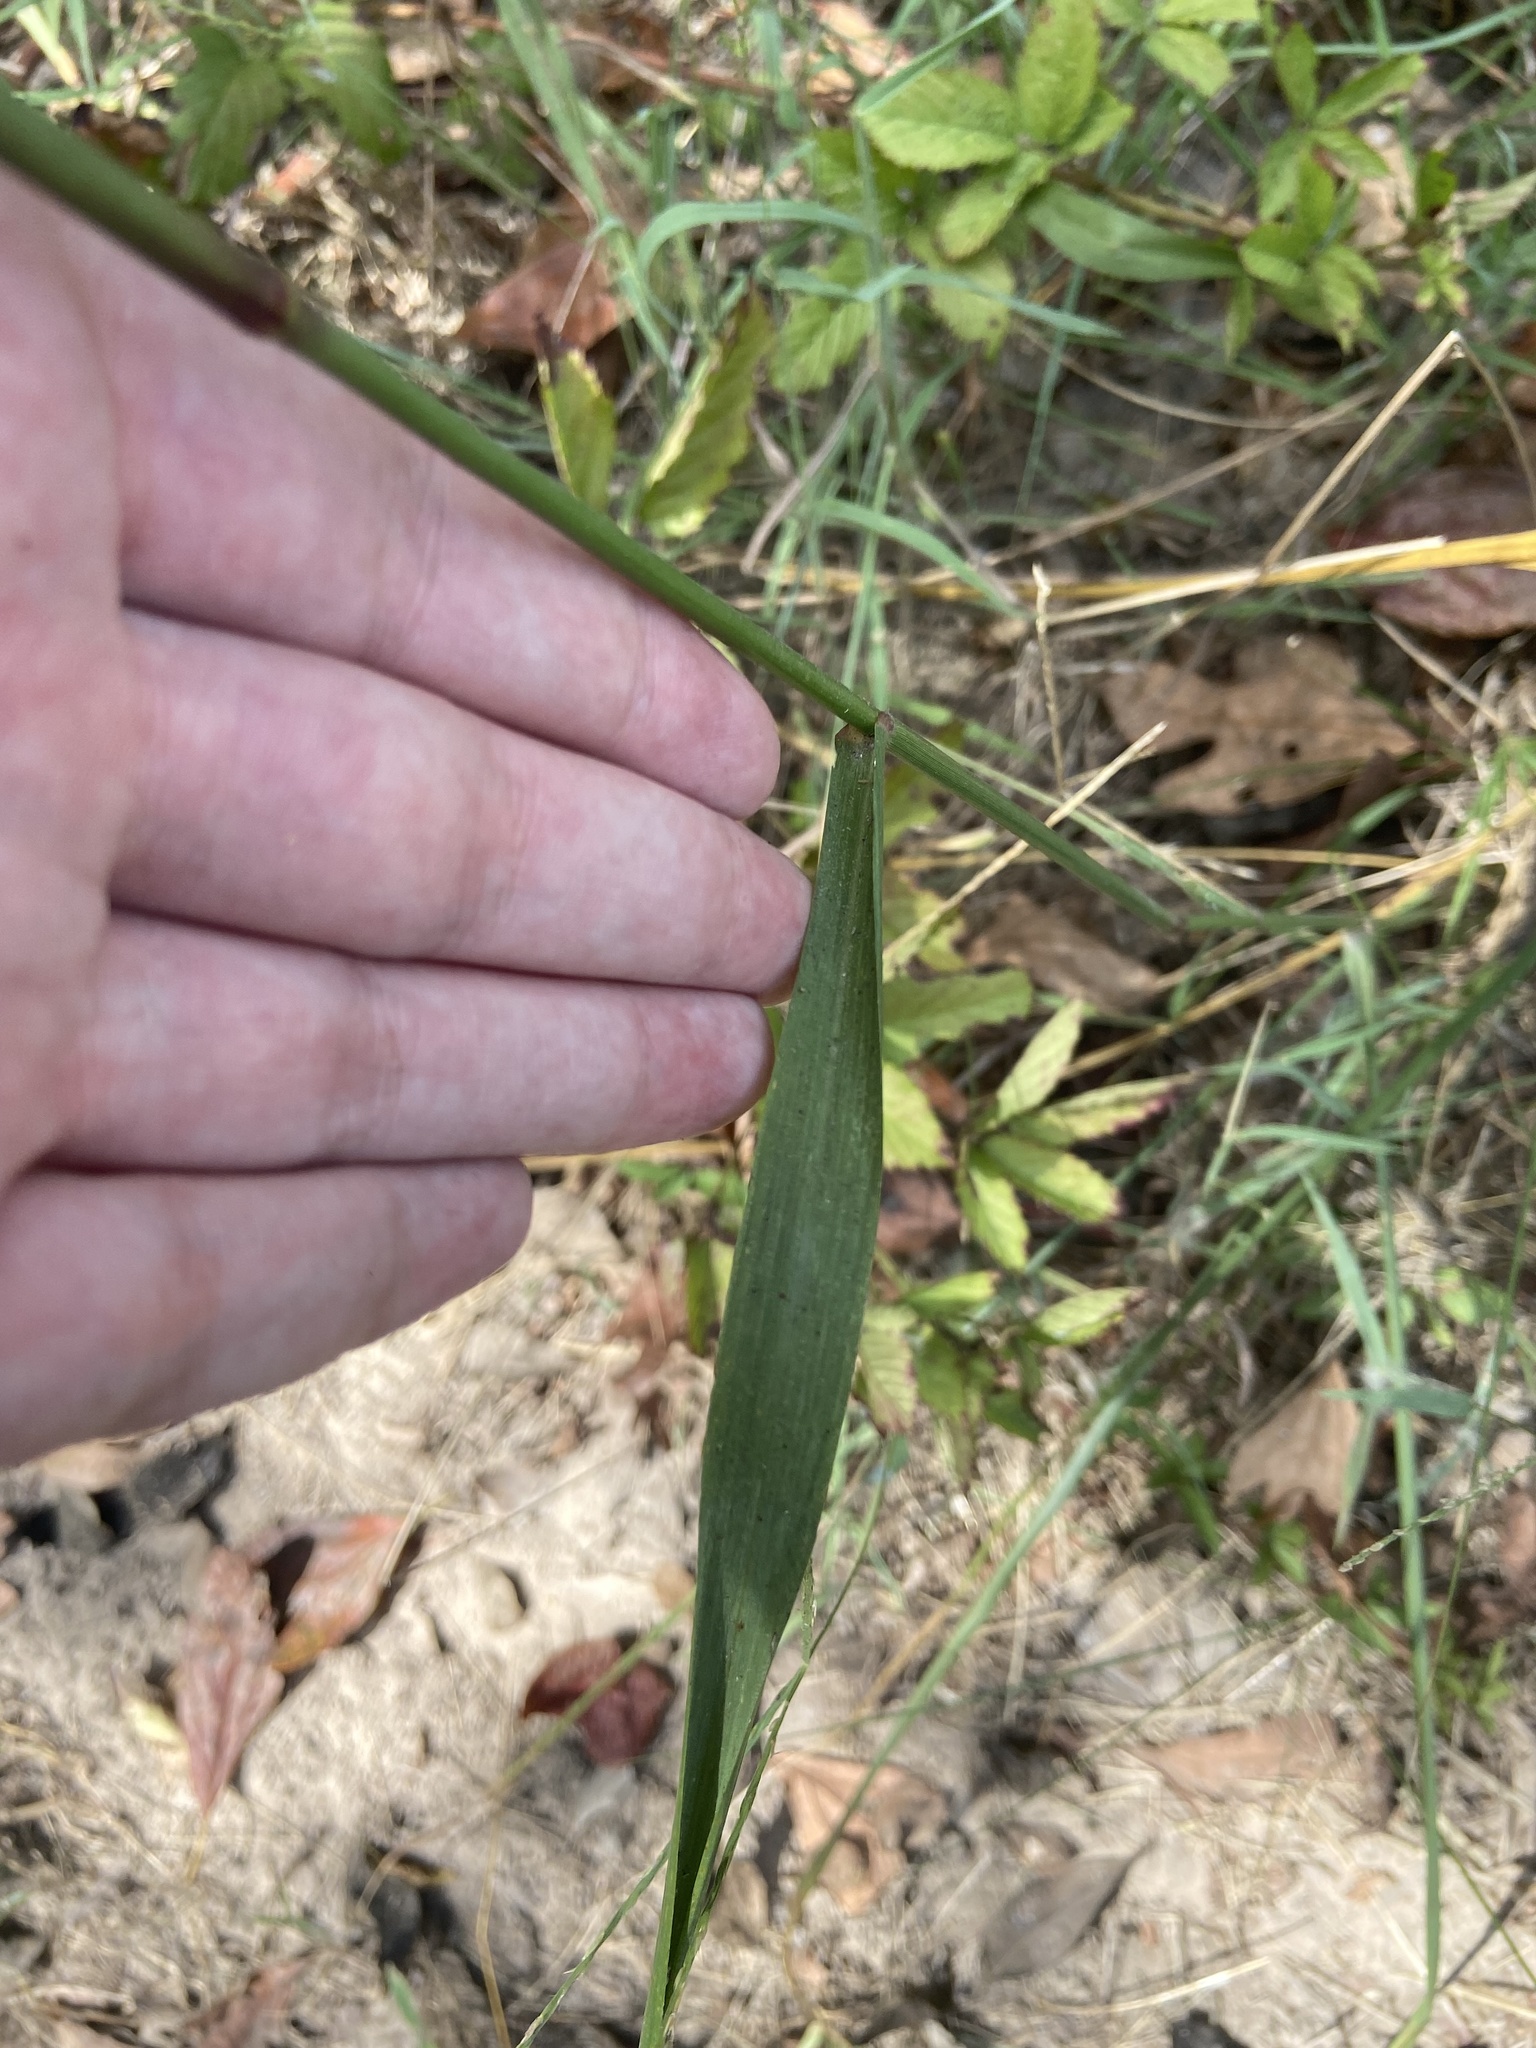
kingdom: Plantae
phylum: Tracheophyta
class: Liliopsida
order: Poales
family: Poaceae
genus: Tridens
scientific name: Tridens flavus
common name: Purpletop
